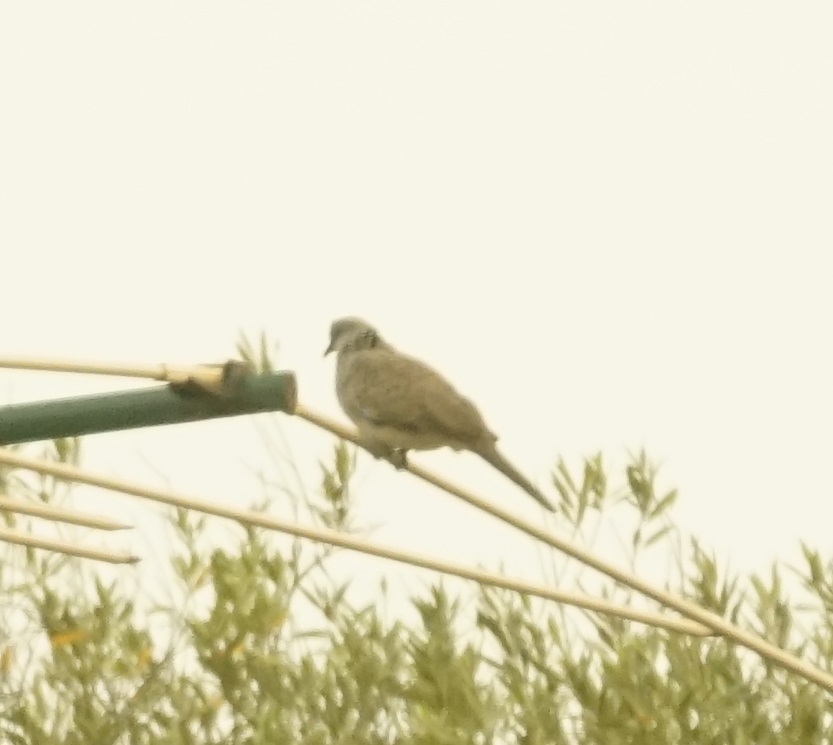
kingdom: Animalia
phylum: Chordata
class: Aves
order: Columbiformes
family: Columbidae
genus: Spilopelia
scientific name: Spilopelia chinensis
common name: Spotted dove
